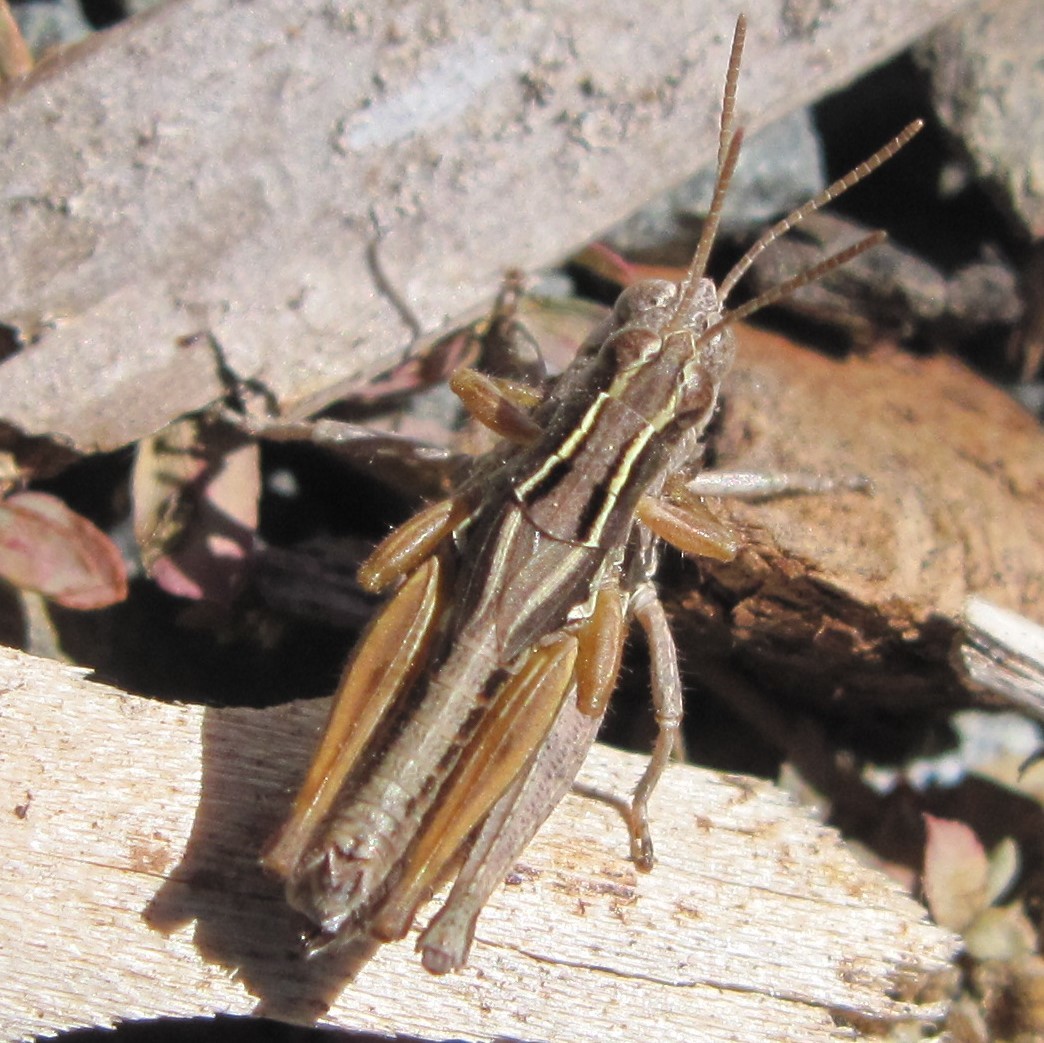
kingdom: Animalia
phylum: Arthropoda
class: Insecta
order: Orthoptera
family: Acrididae
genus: Phaulacridium
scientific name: Phaulacridium marginale
